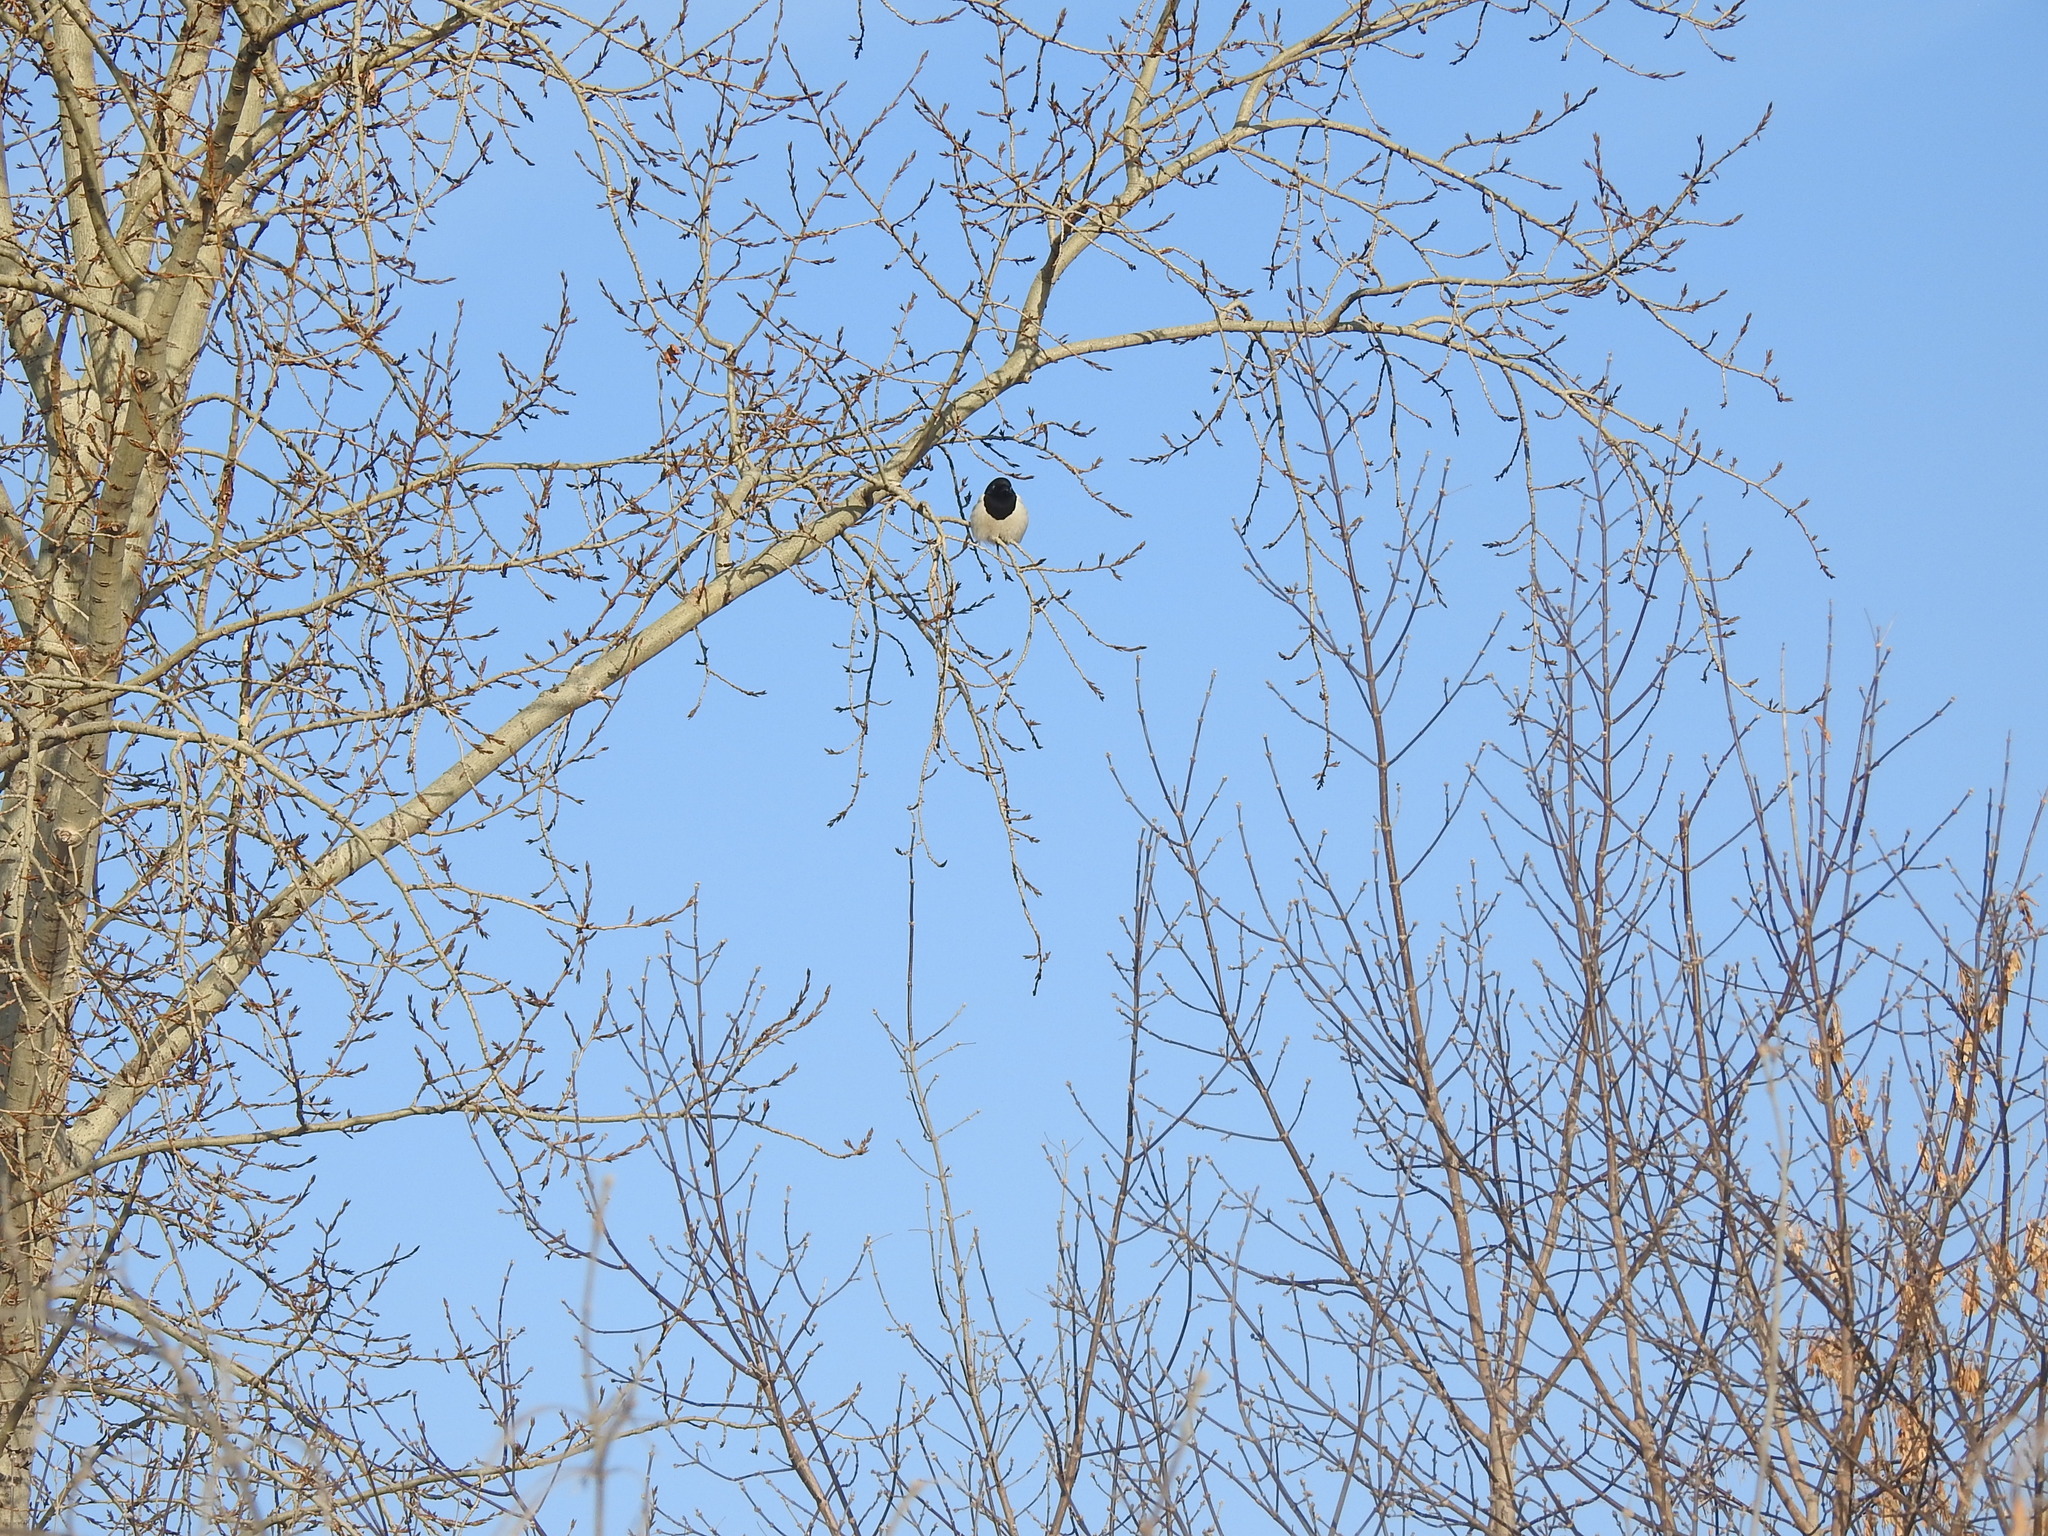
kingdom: Animalia
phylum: Chordata
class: Aves
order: Passeriformes
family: Corvidae
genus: Pica
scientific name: Pica pica
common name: Eurasian magpie
